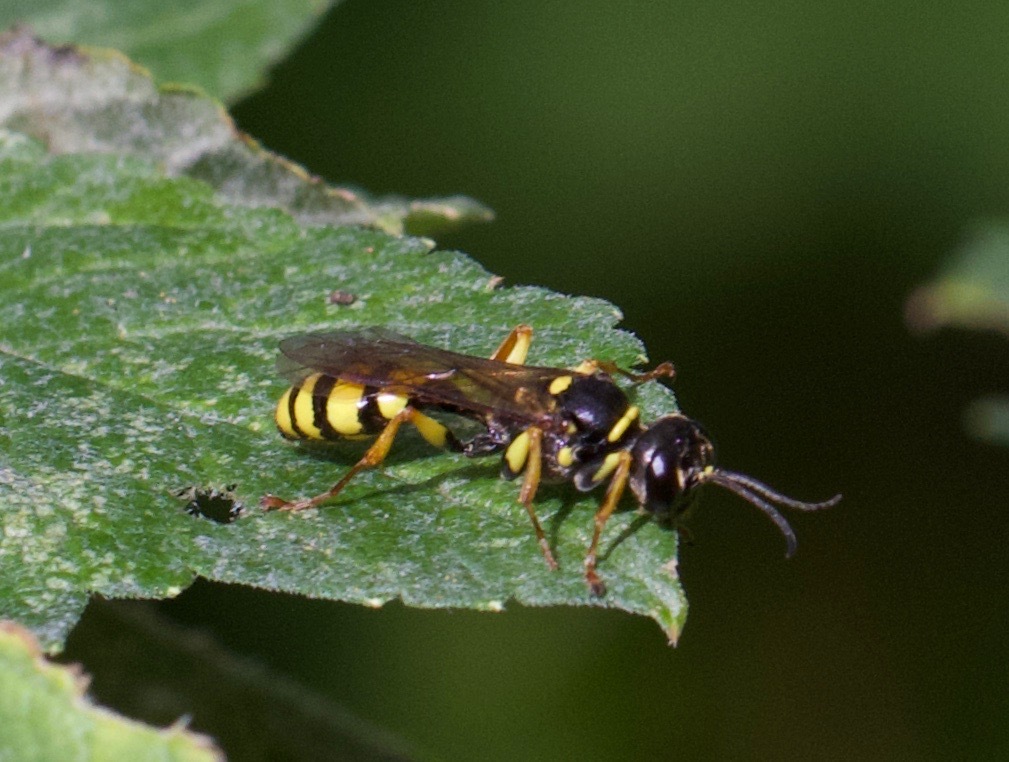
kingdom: Animalia
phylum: Arthropoda
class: Insecta
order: Hymenoptera
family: Crabronidae
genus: Mellinus
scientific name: Mellinus arvensis
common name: Field digger wasp
